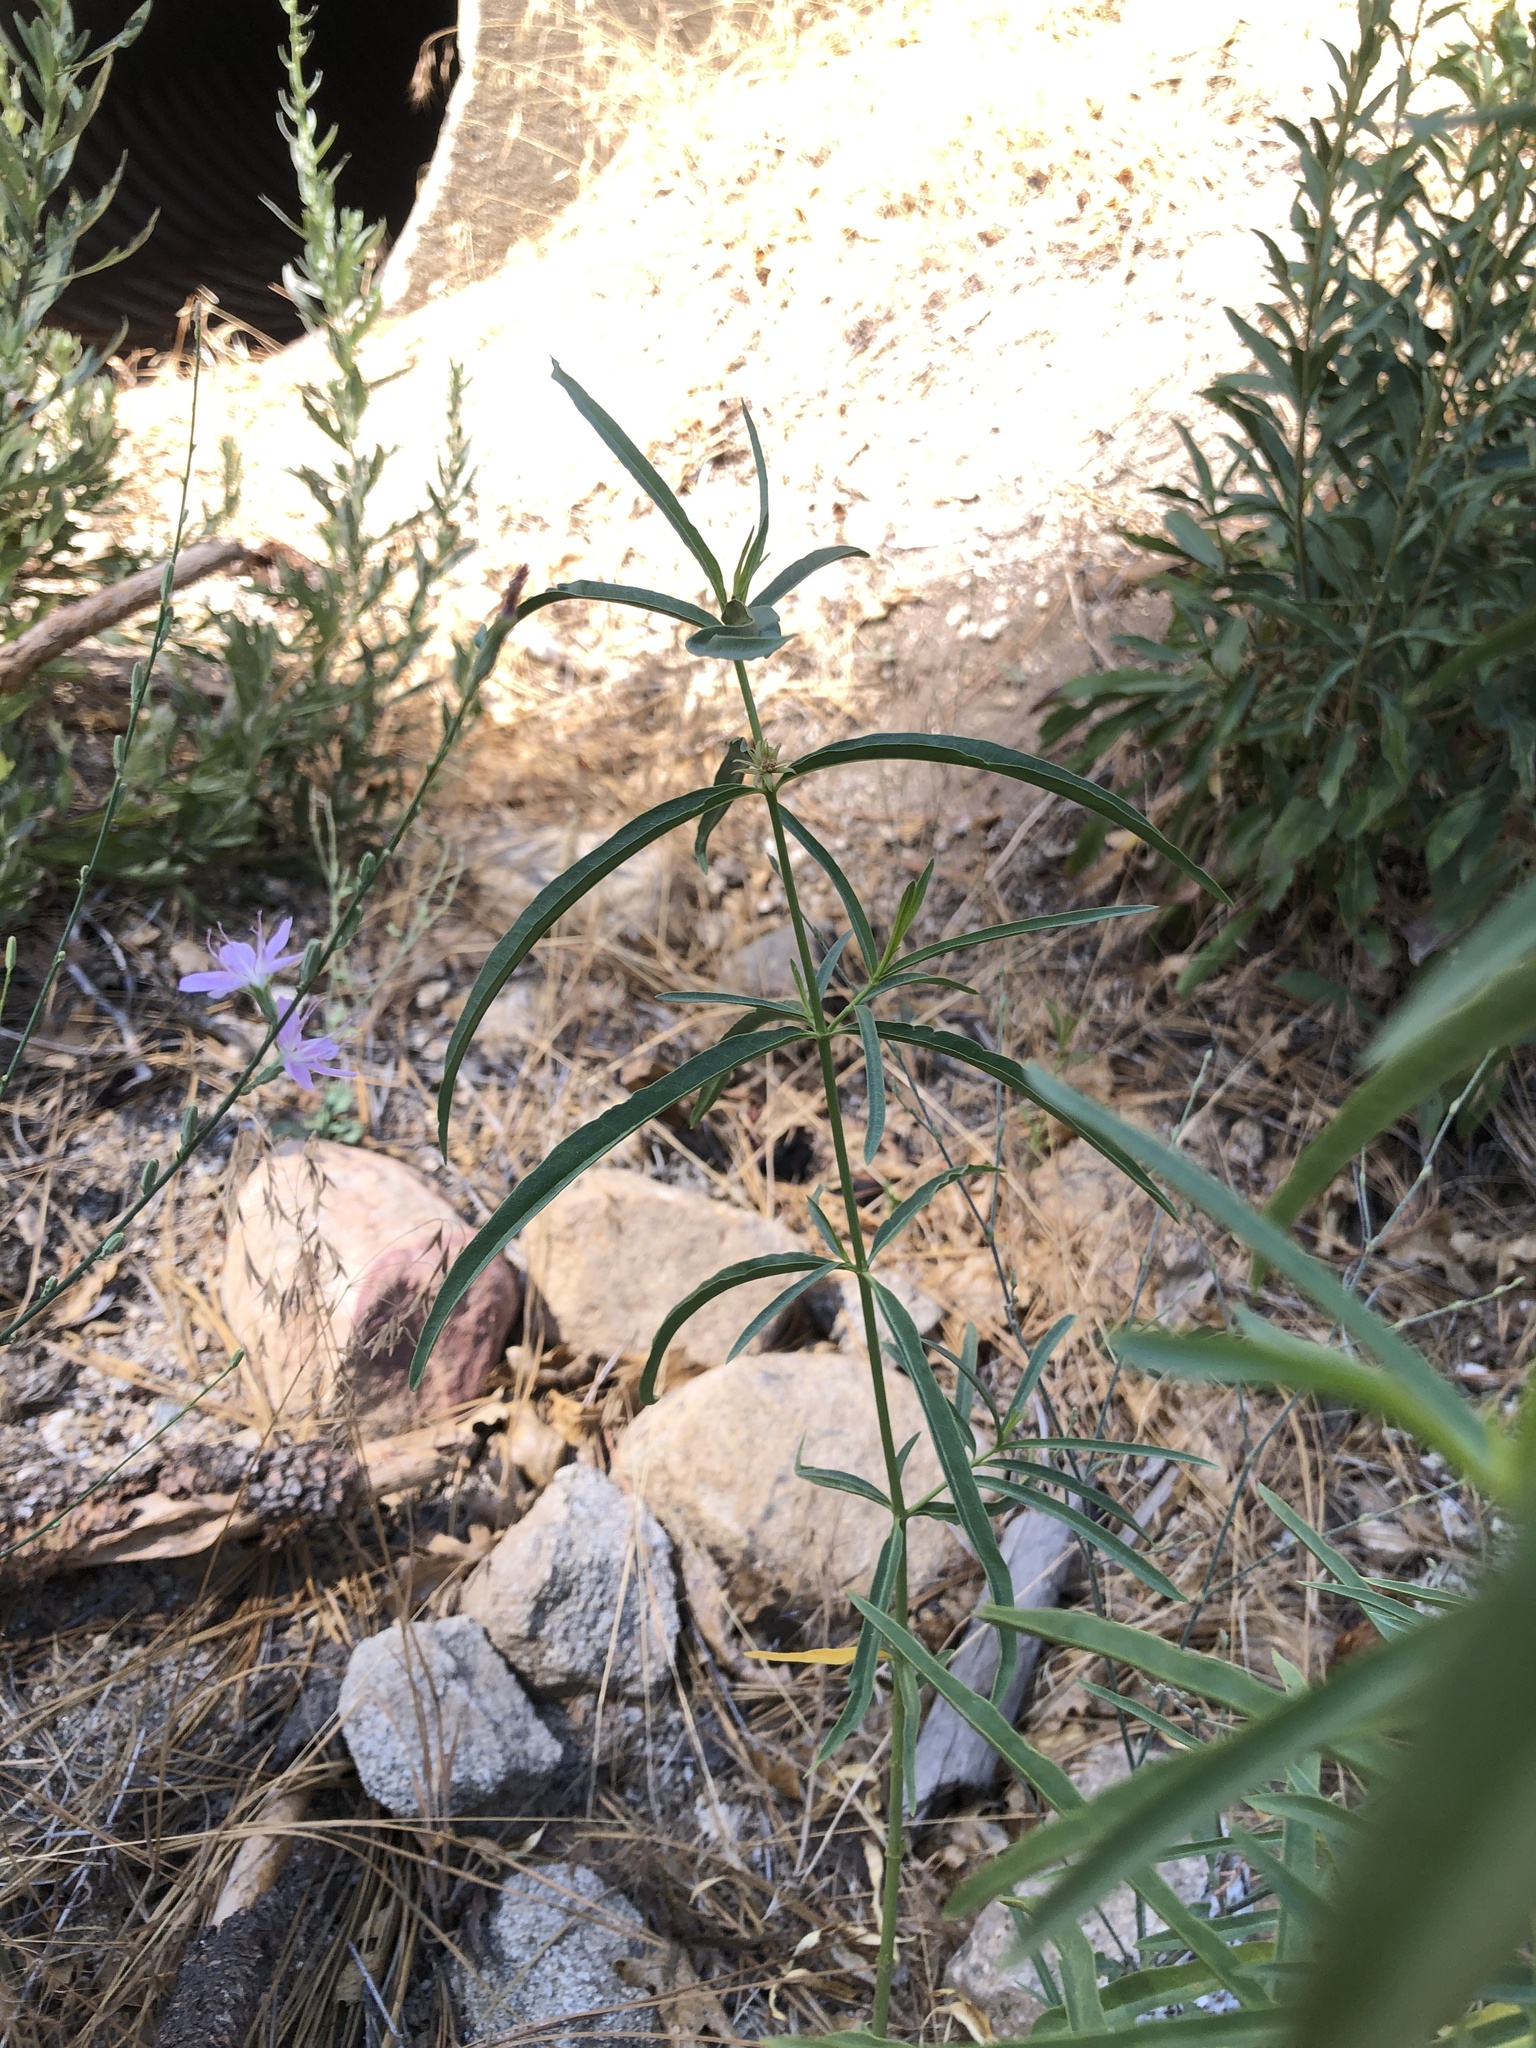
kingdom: Plantae
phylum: Tracheophyta
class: Magnoliopsida
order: Gentianales
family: Apocynaceae
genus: Asclepias
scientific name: Asclepias fascicularis
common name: Mexican milkweed
